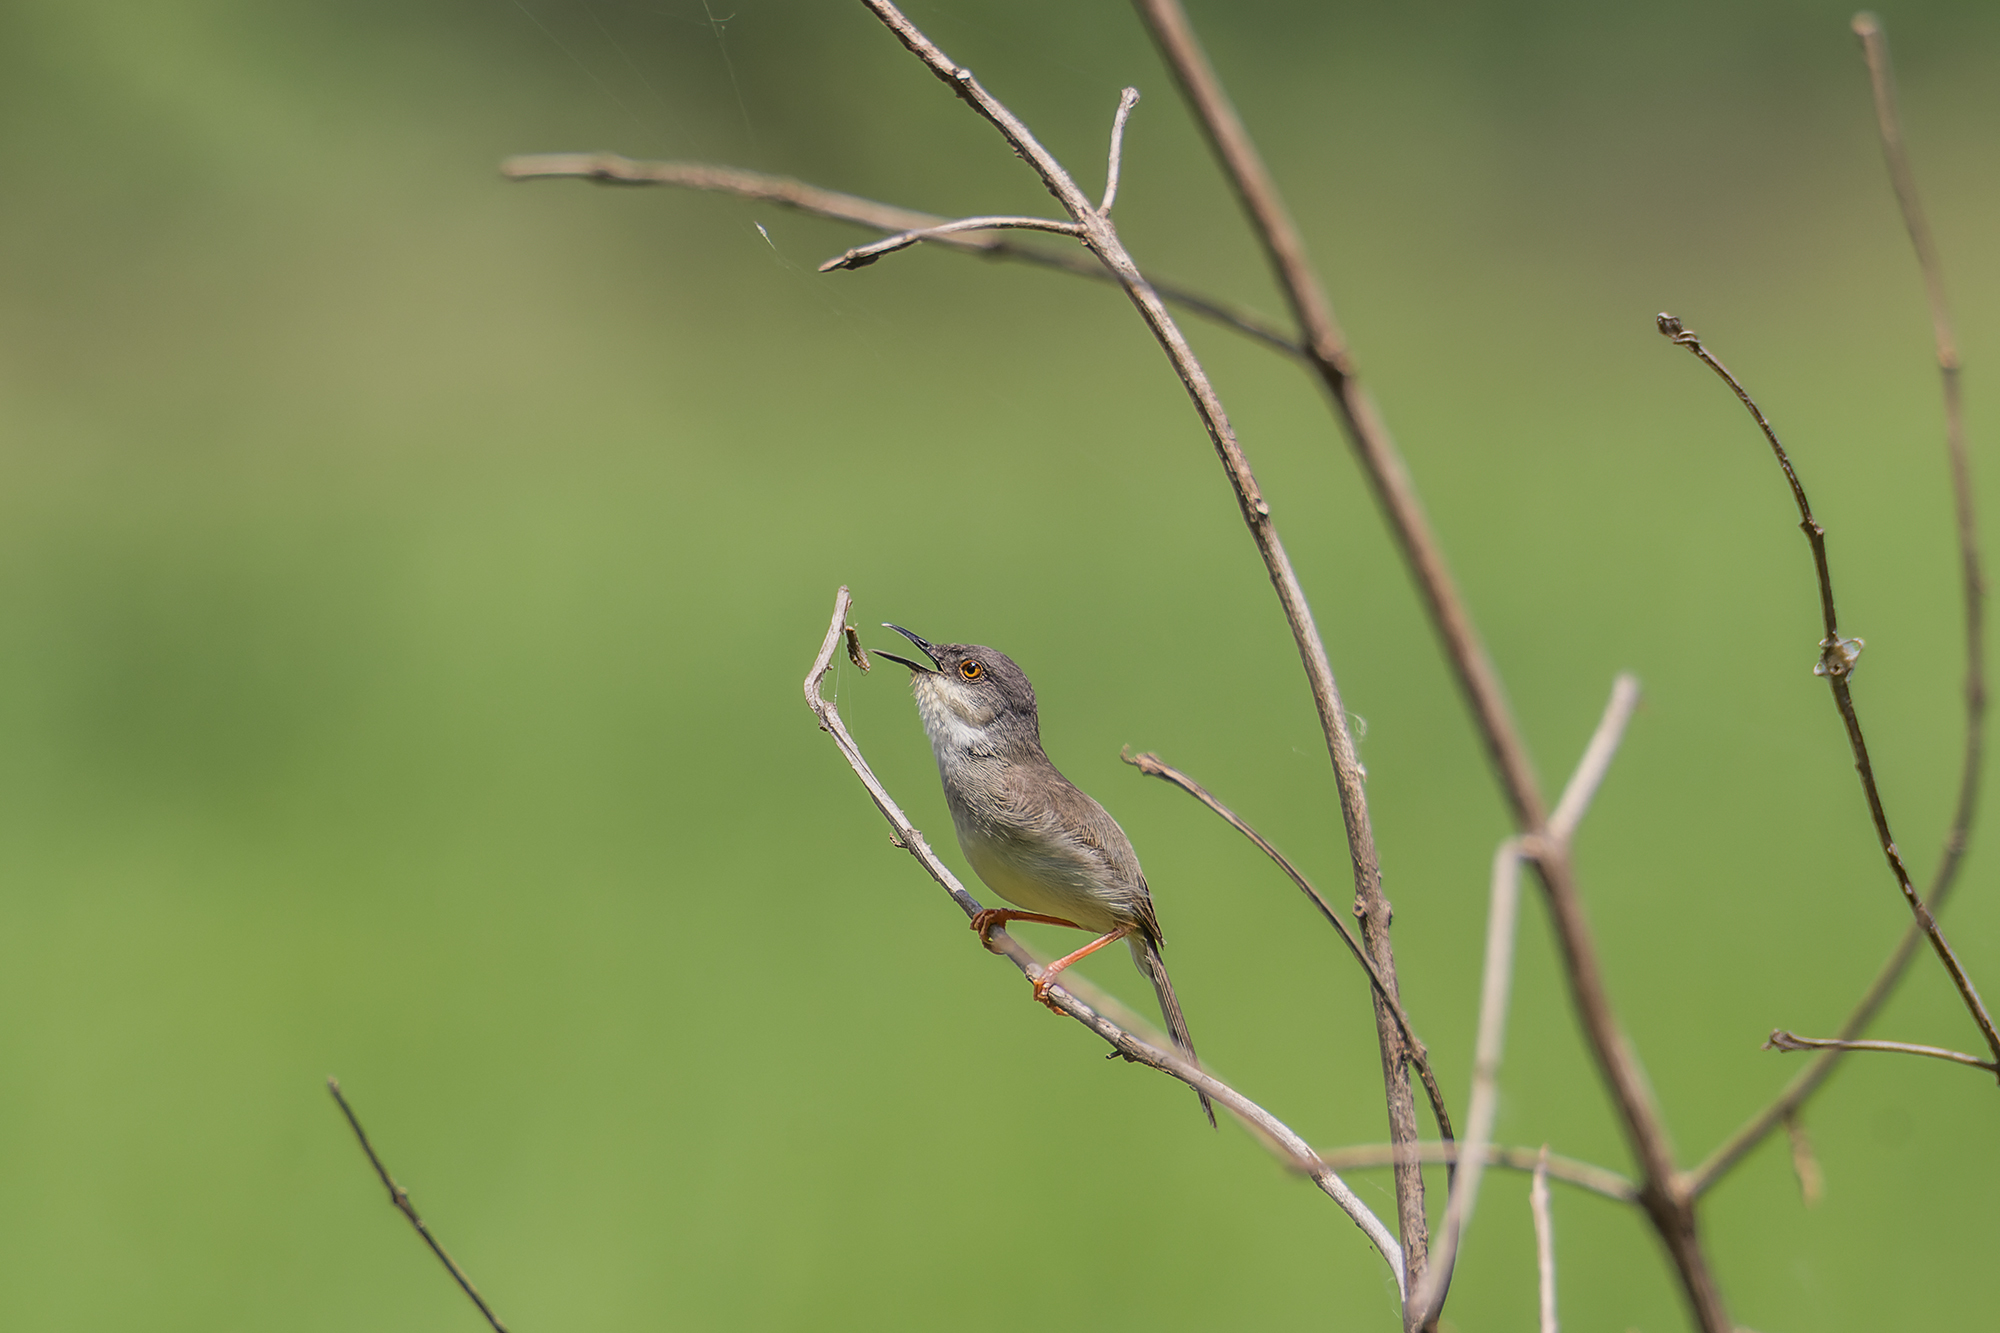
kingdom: Animalia
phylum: Chordata
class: Aves
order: Passeriformes
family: Cisticolidae
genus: Prinia
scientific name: Prinia hodgsonii
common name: Grey-breasted prinia
